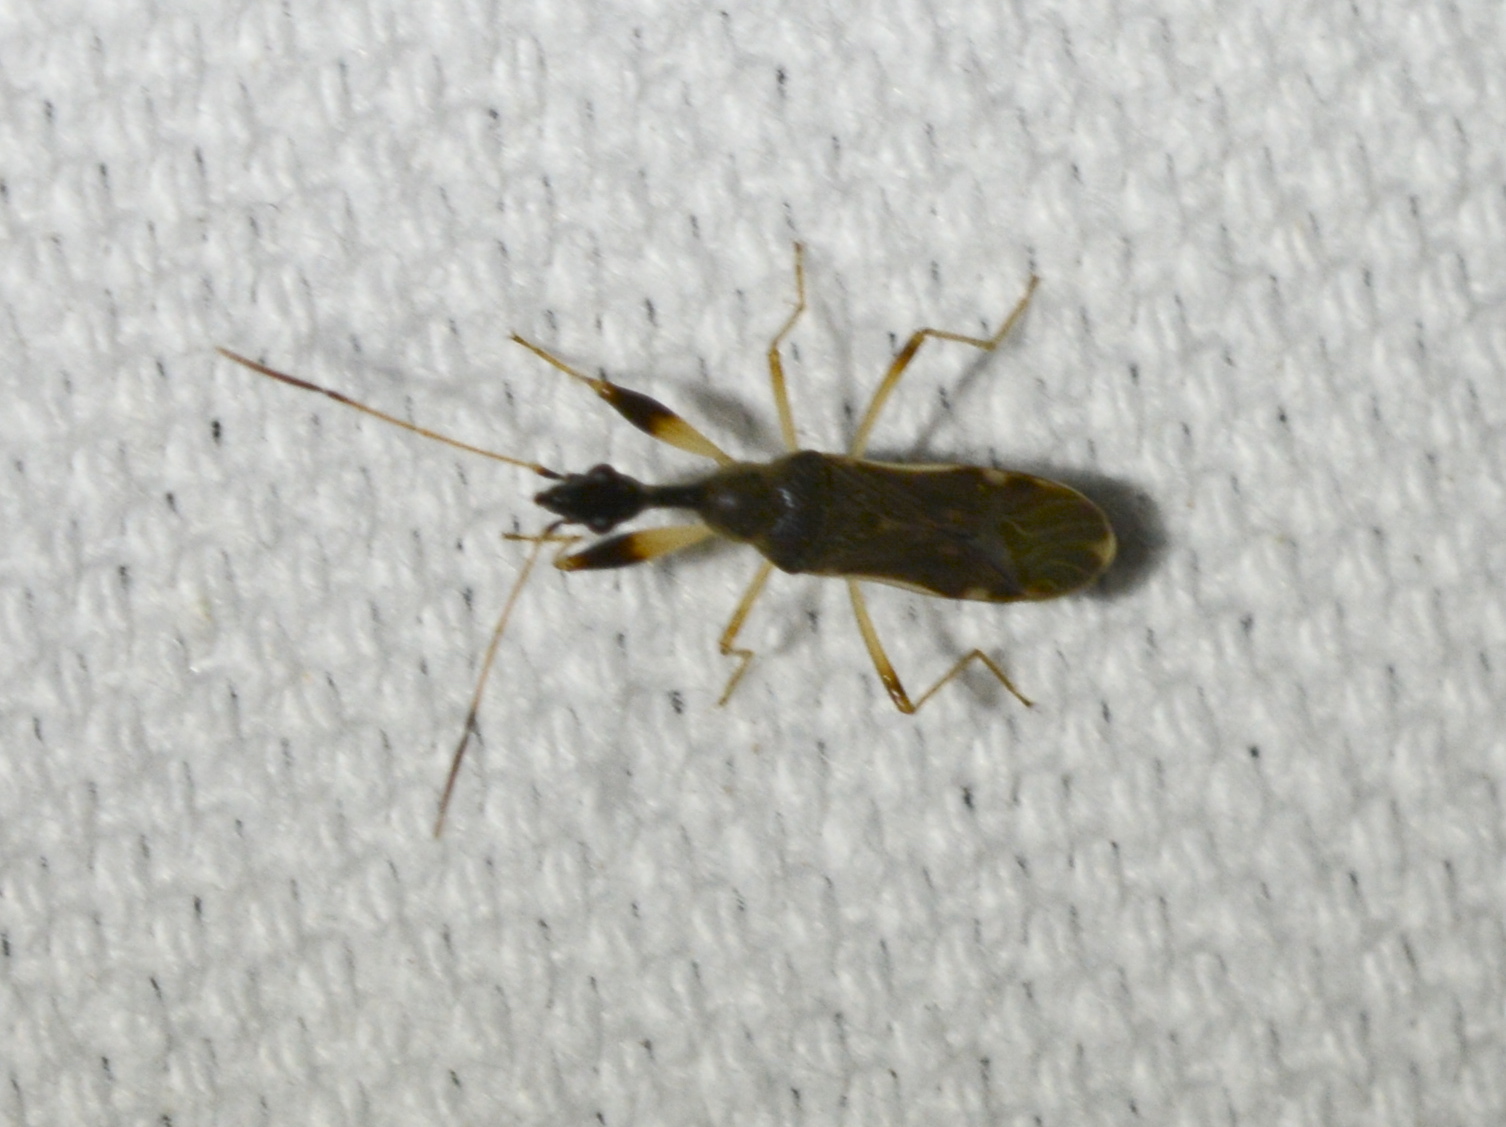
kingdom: Animalia
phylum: Arthropoda
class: Insecta
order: Hemiptera
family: Rhyparochromidae
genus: Myodocha
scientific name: Myodocha serripes
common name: Long-necked seed bug
